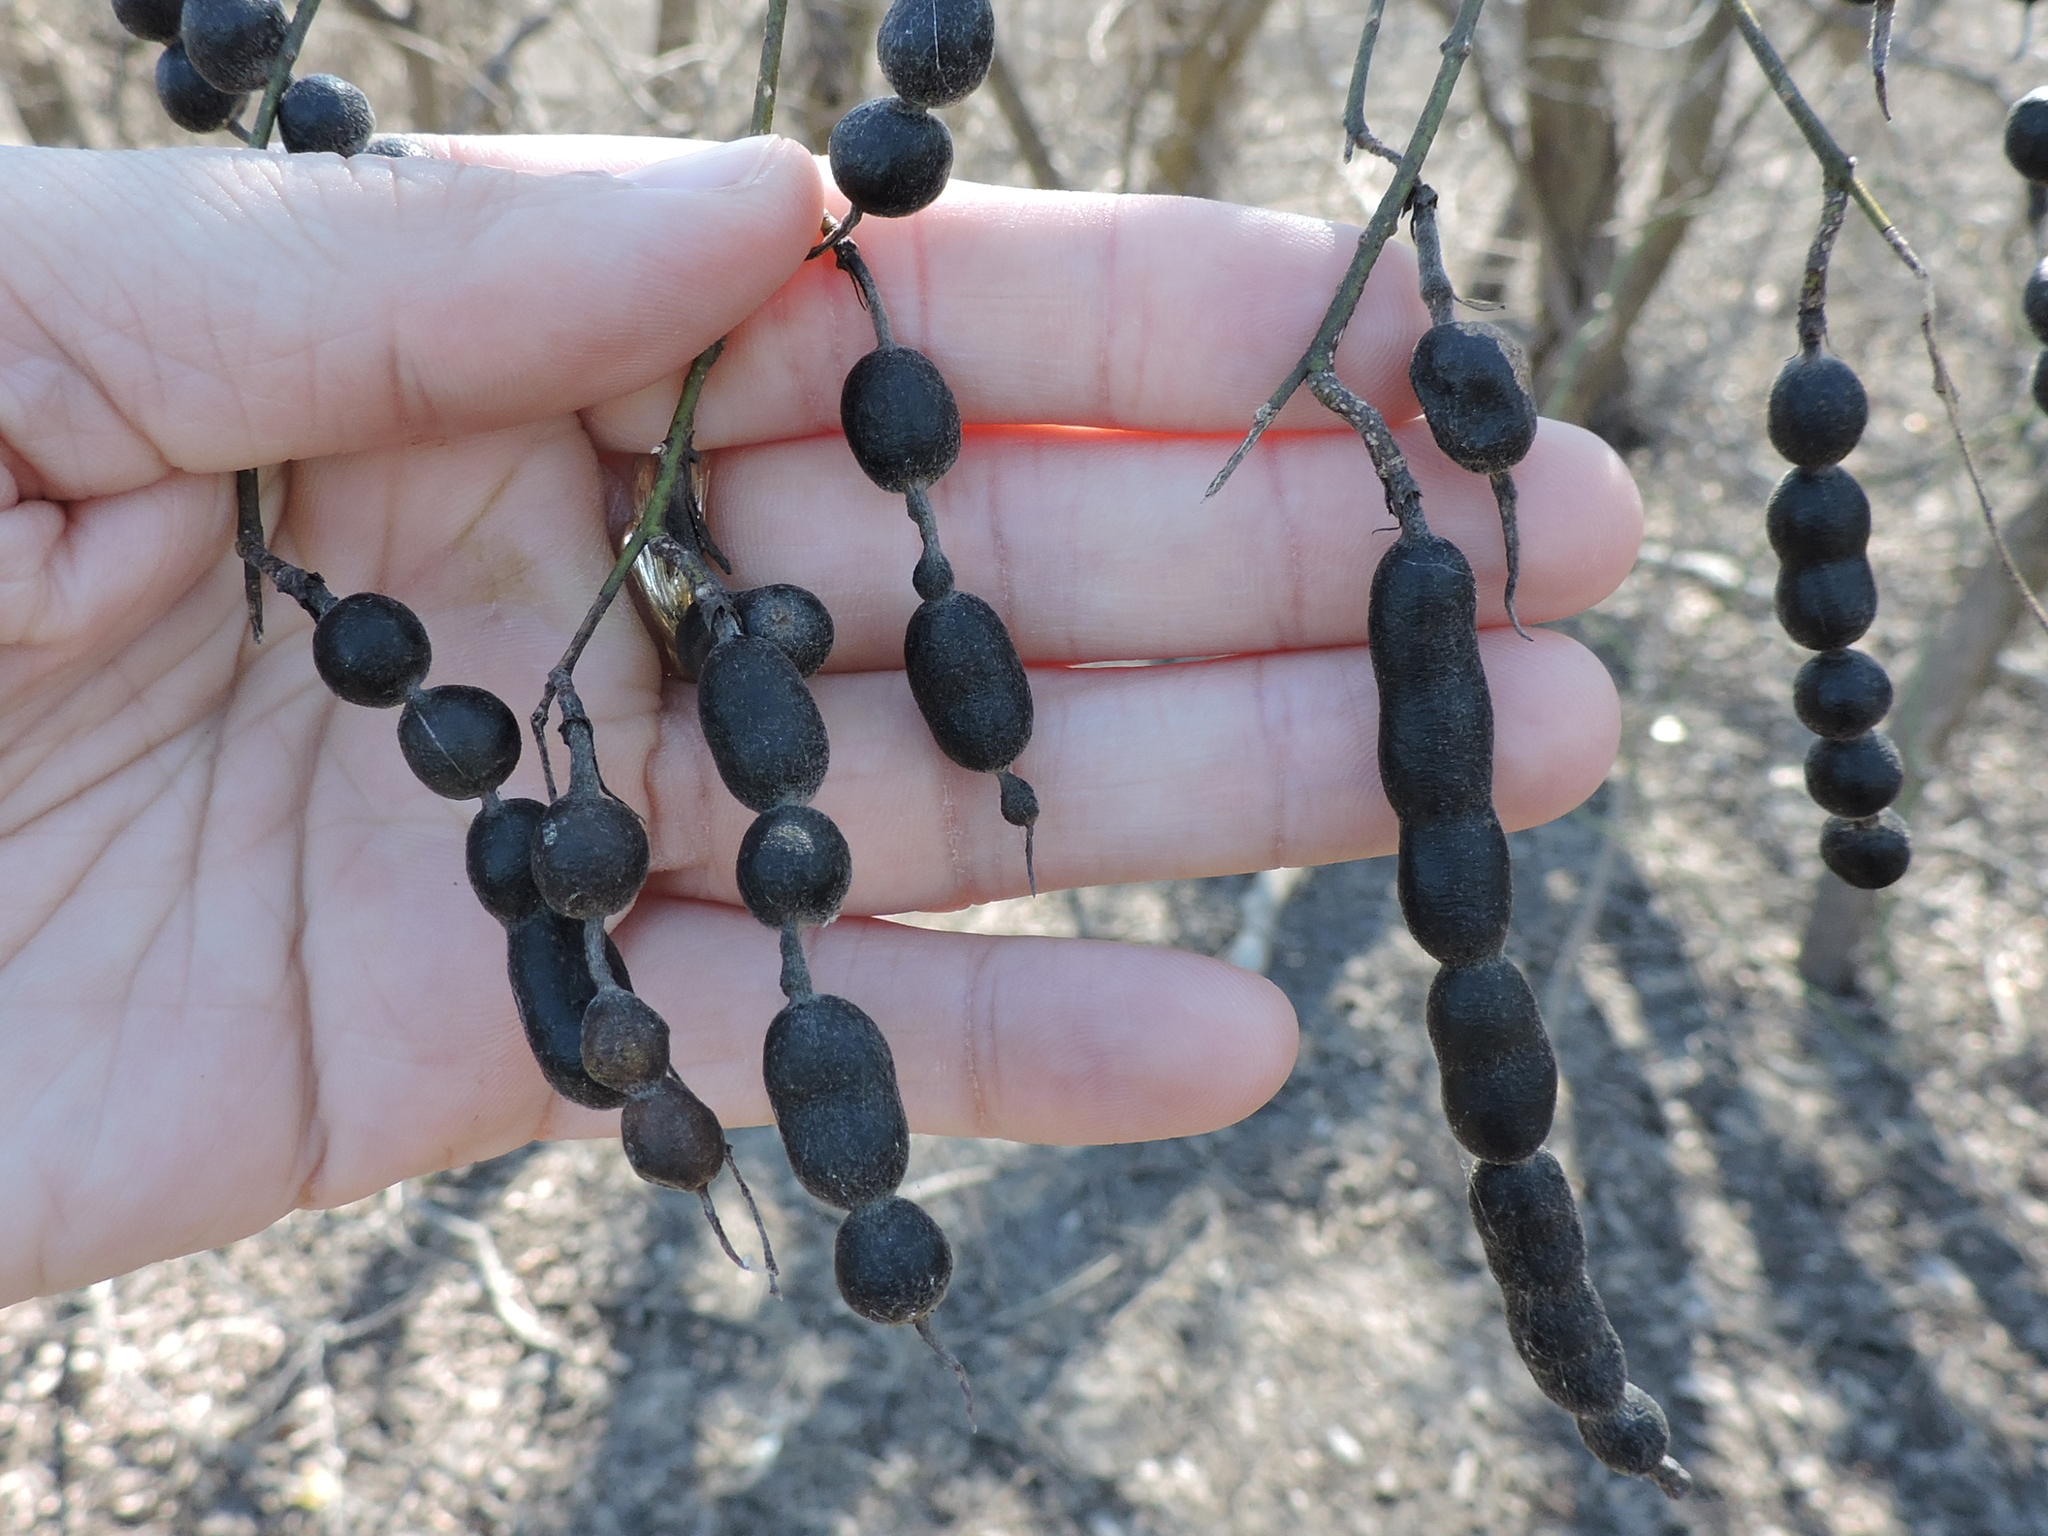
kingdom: Plantae
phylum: Tracheophyta
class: Magnoliopsida
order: Fabales
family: Fabaceae
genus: Styphnolobium
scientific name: Styphnolobium affine
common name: Texas sophora
